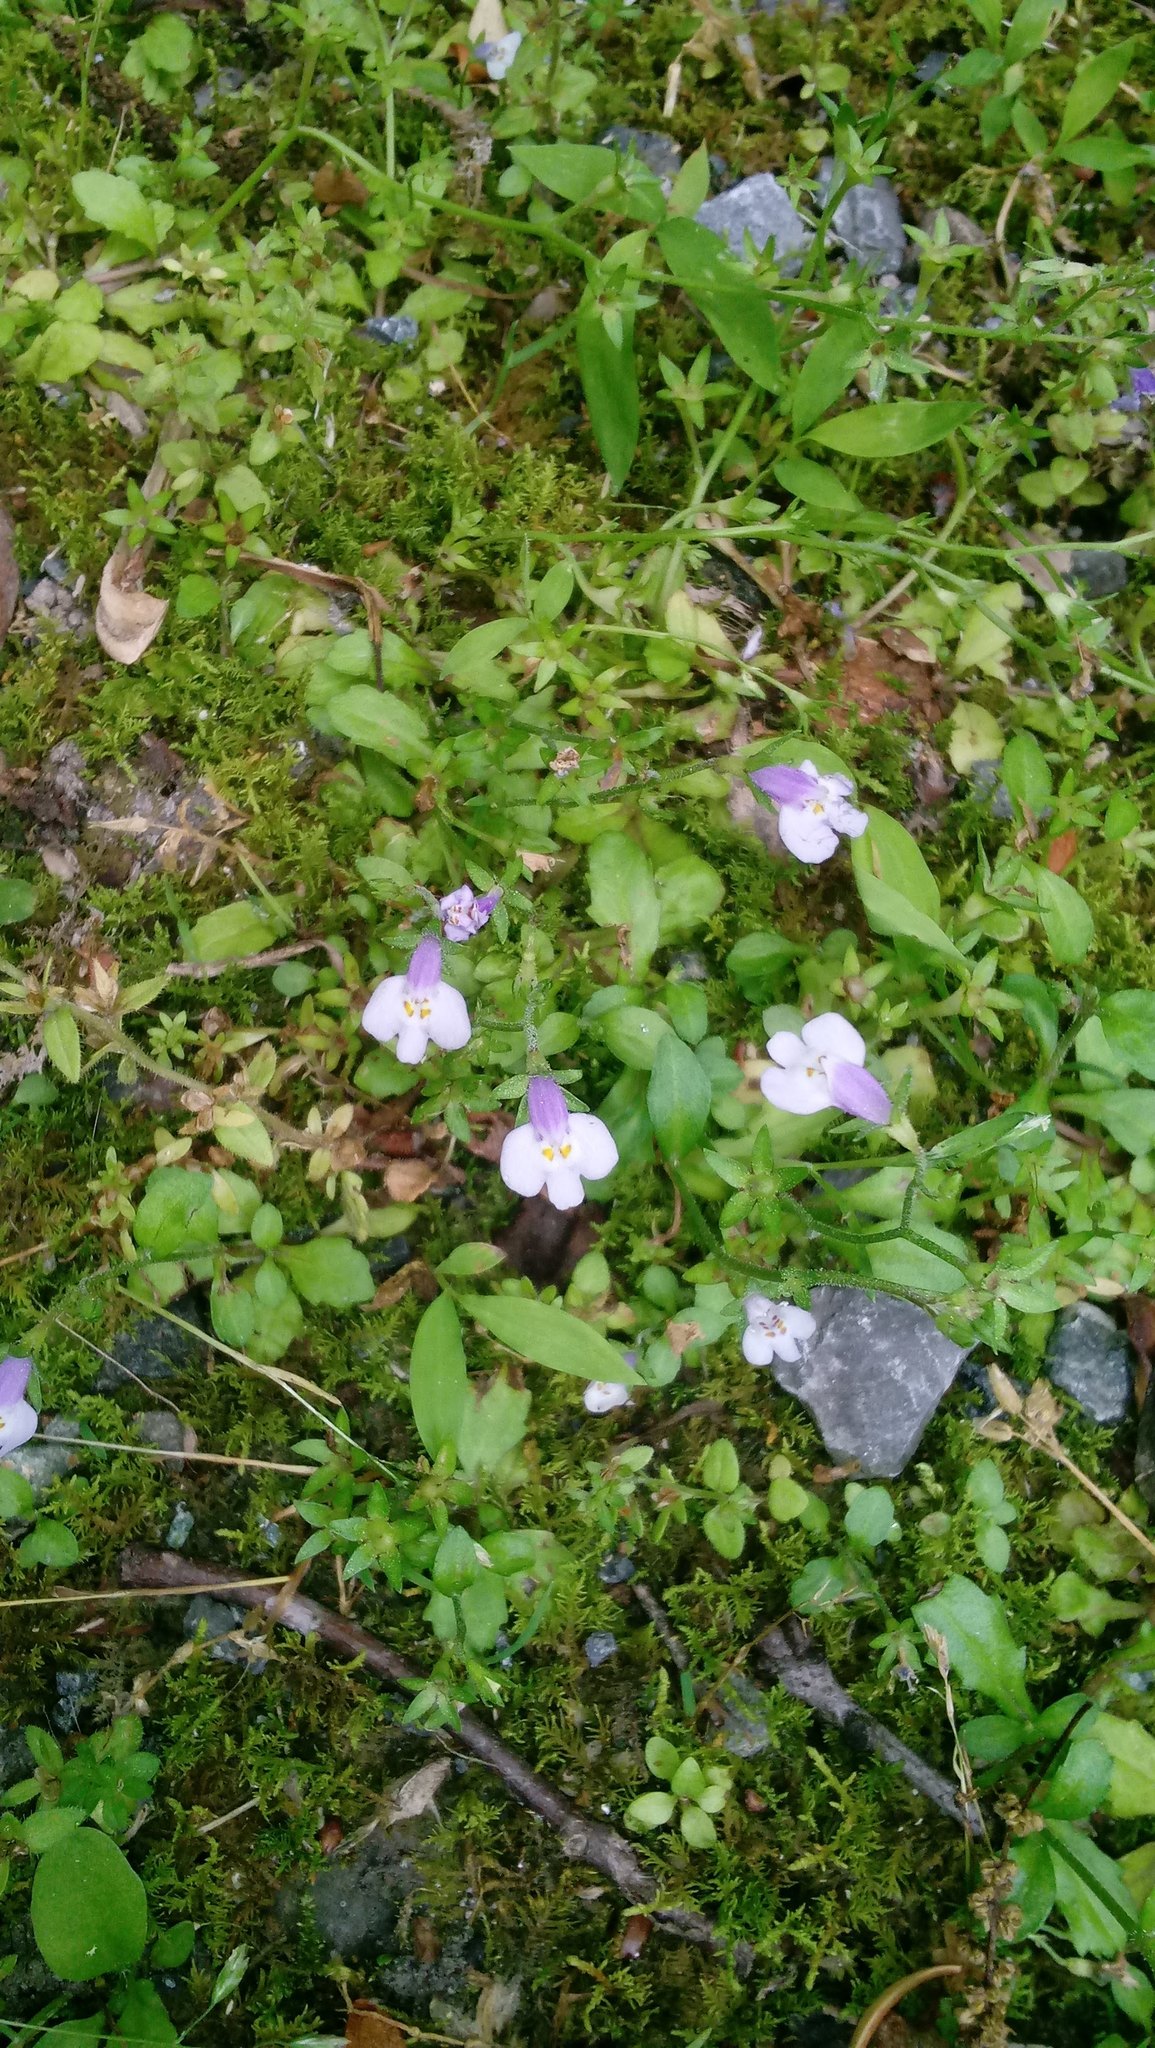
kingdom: Plantae
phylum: Tracheophyta
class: Magnoliopsida
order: Lamiales
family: Mazaceae
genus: Mazus
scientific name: Mazus pumilus
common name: Japanese mazus
